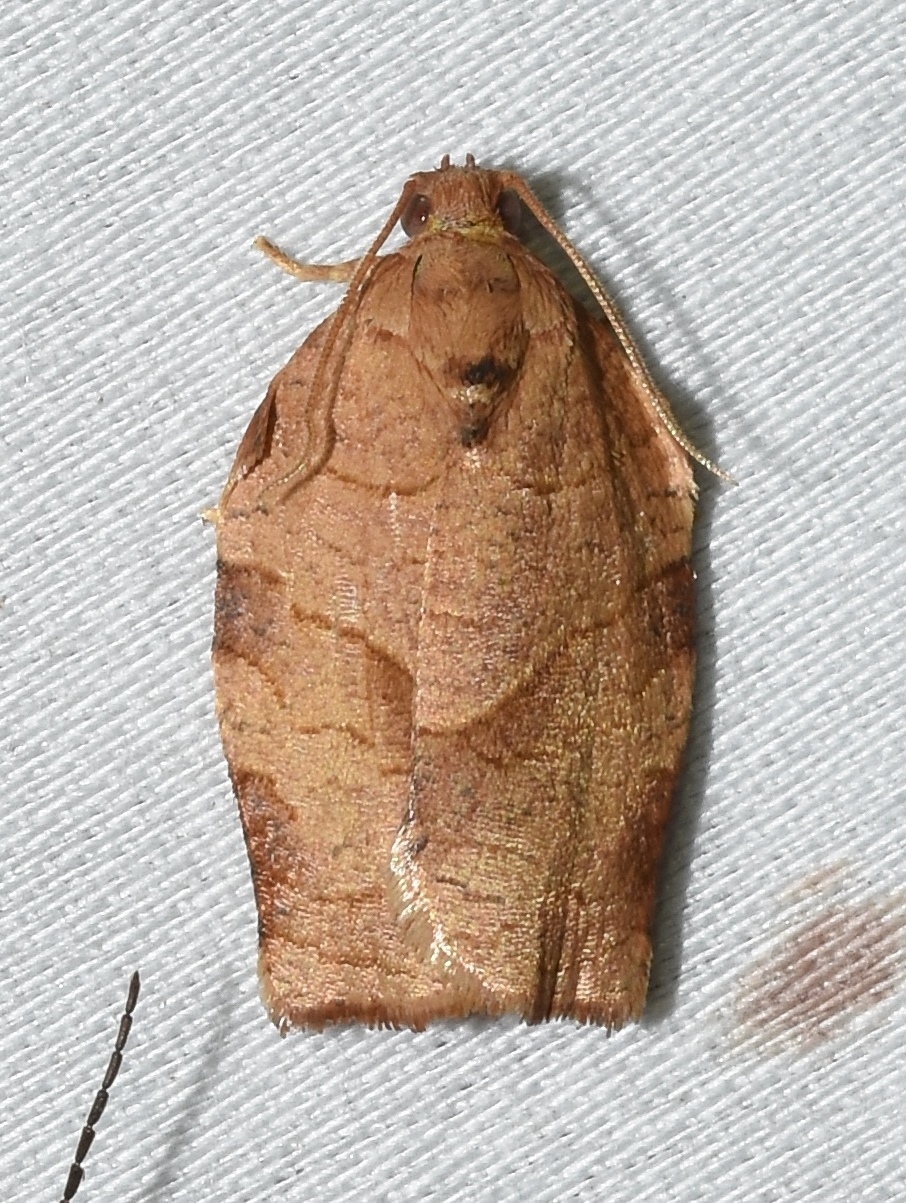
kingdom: Animalia
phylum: Arthropoda
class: Insecta
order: Lepidoptera
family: Tortricidae
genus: Choristoneura
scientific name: Choristoneura rosaceana
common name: Oblique-banded leafroller moth
